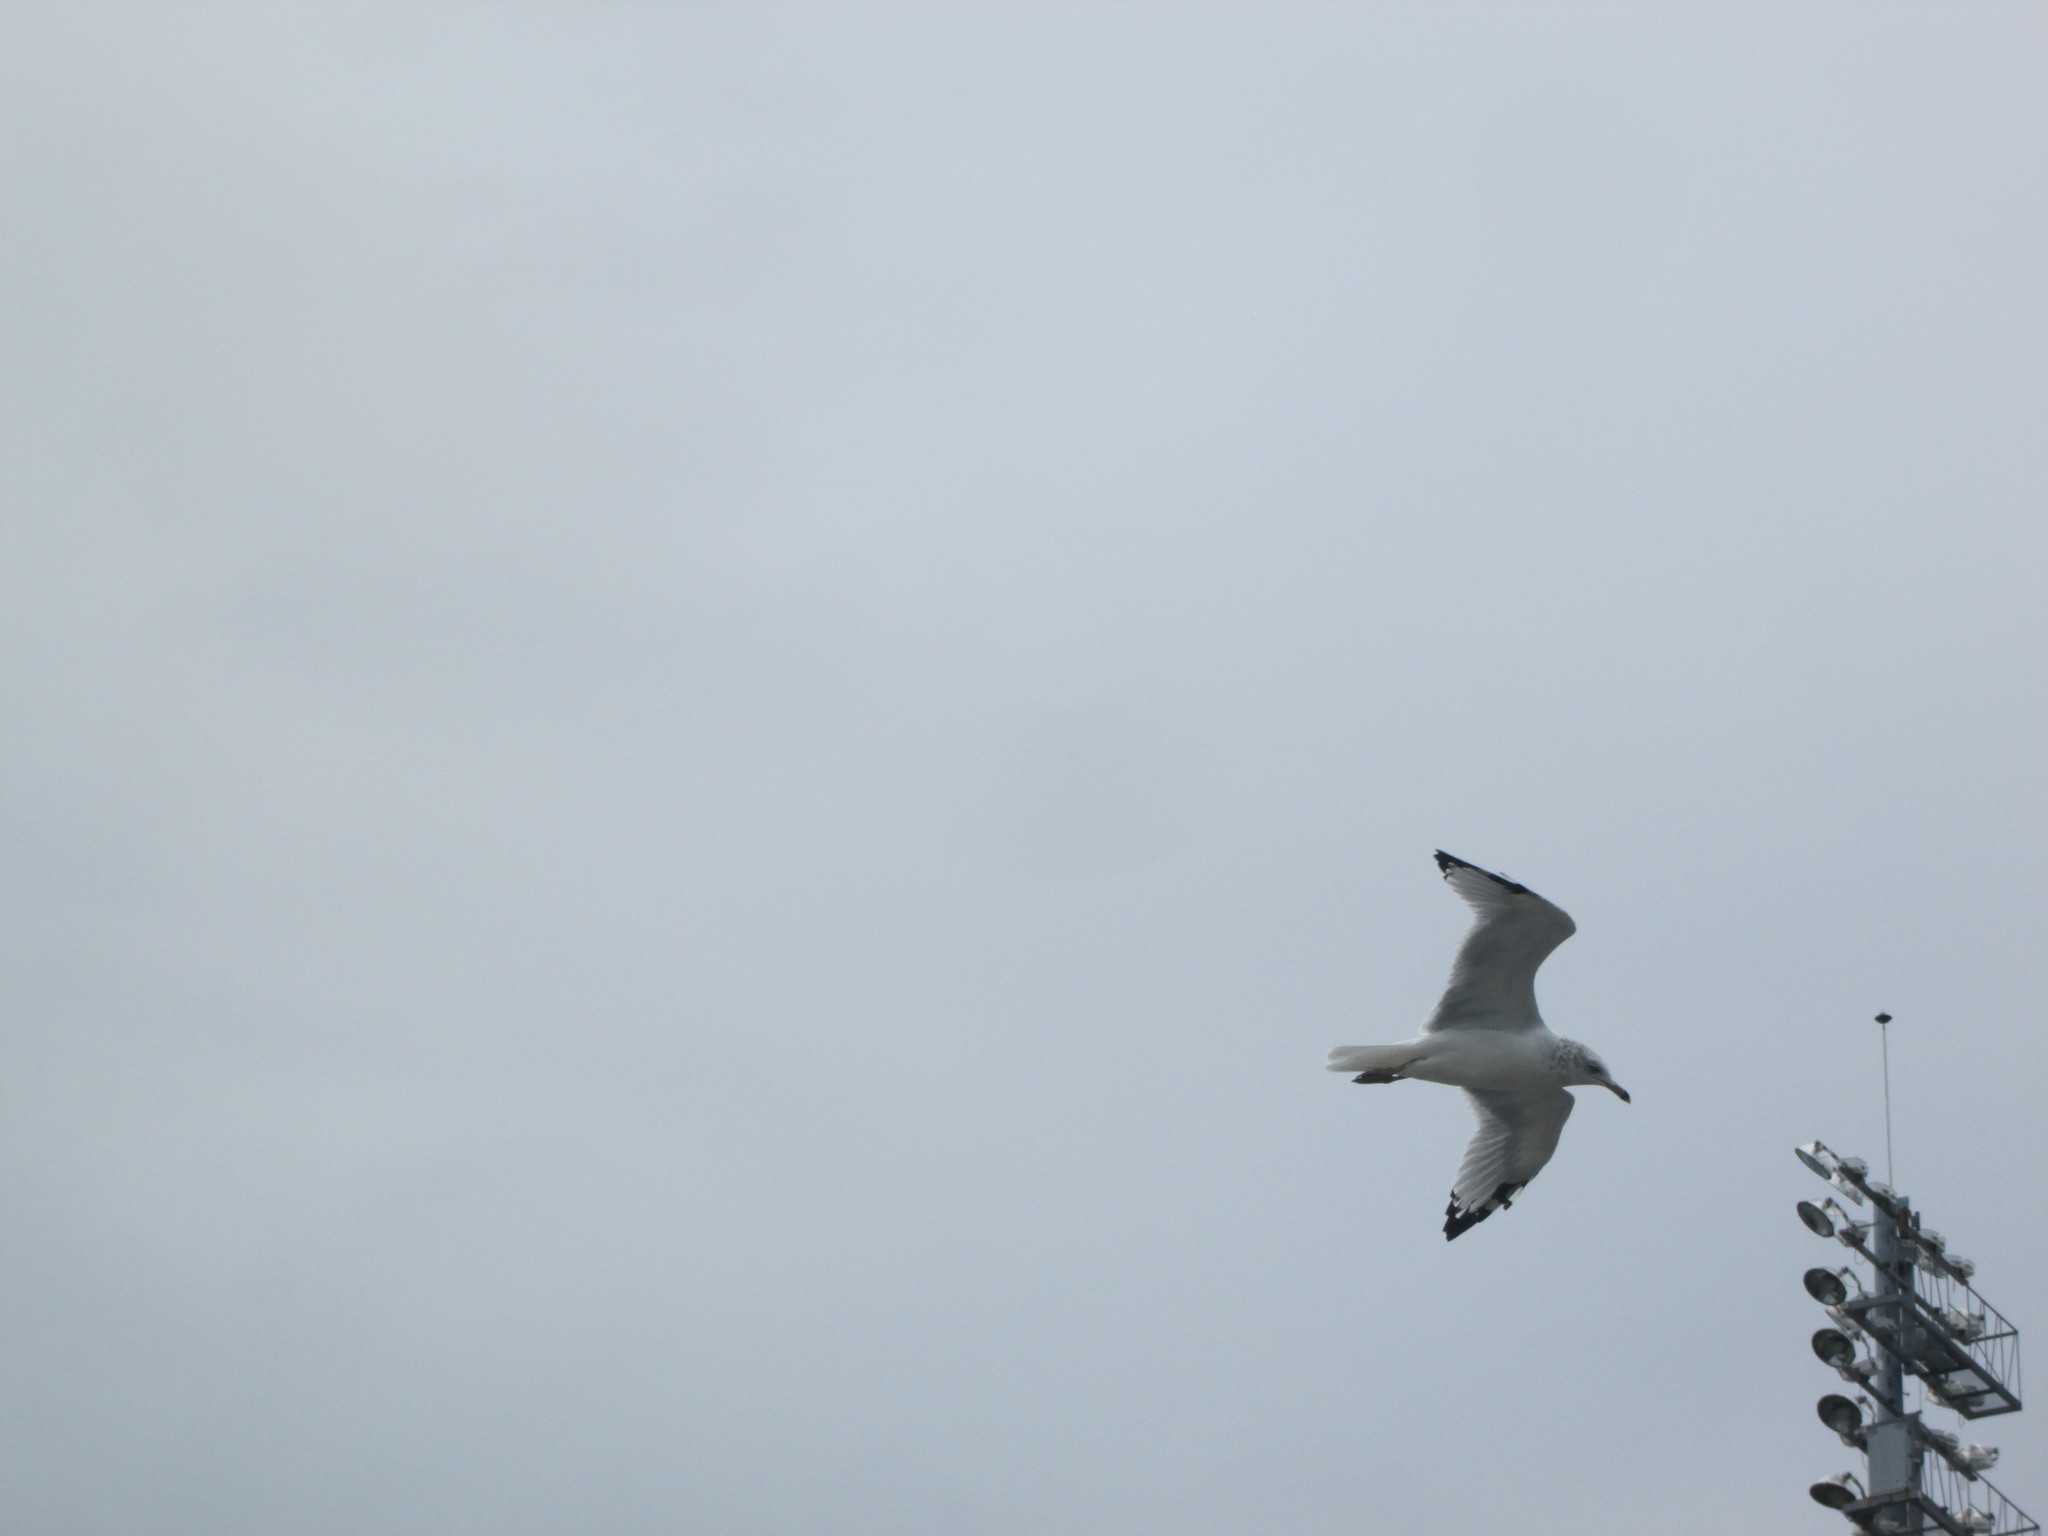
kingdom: Animalia
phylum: Chordata
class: Aves
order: Charadriiformes
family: Laridae
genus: Larus
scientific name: Larus delawarensis
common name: Ring-billed gull
